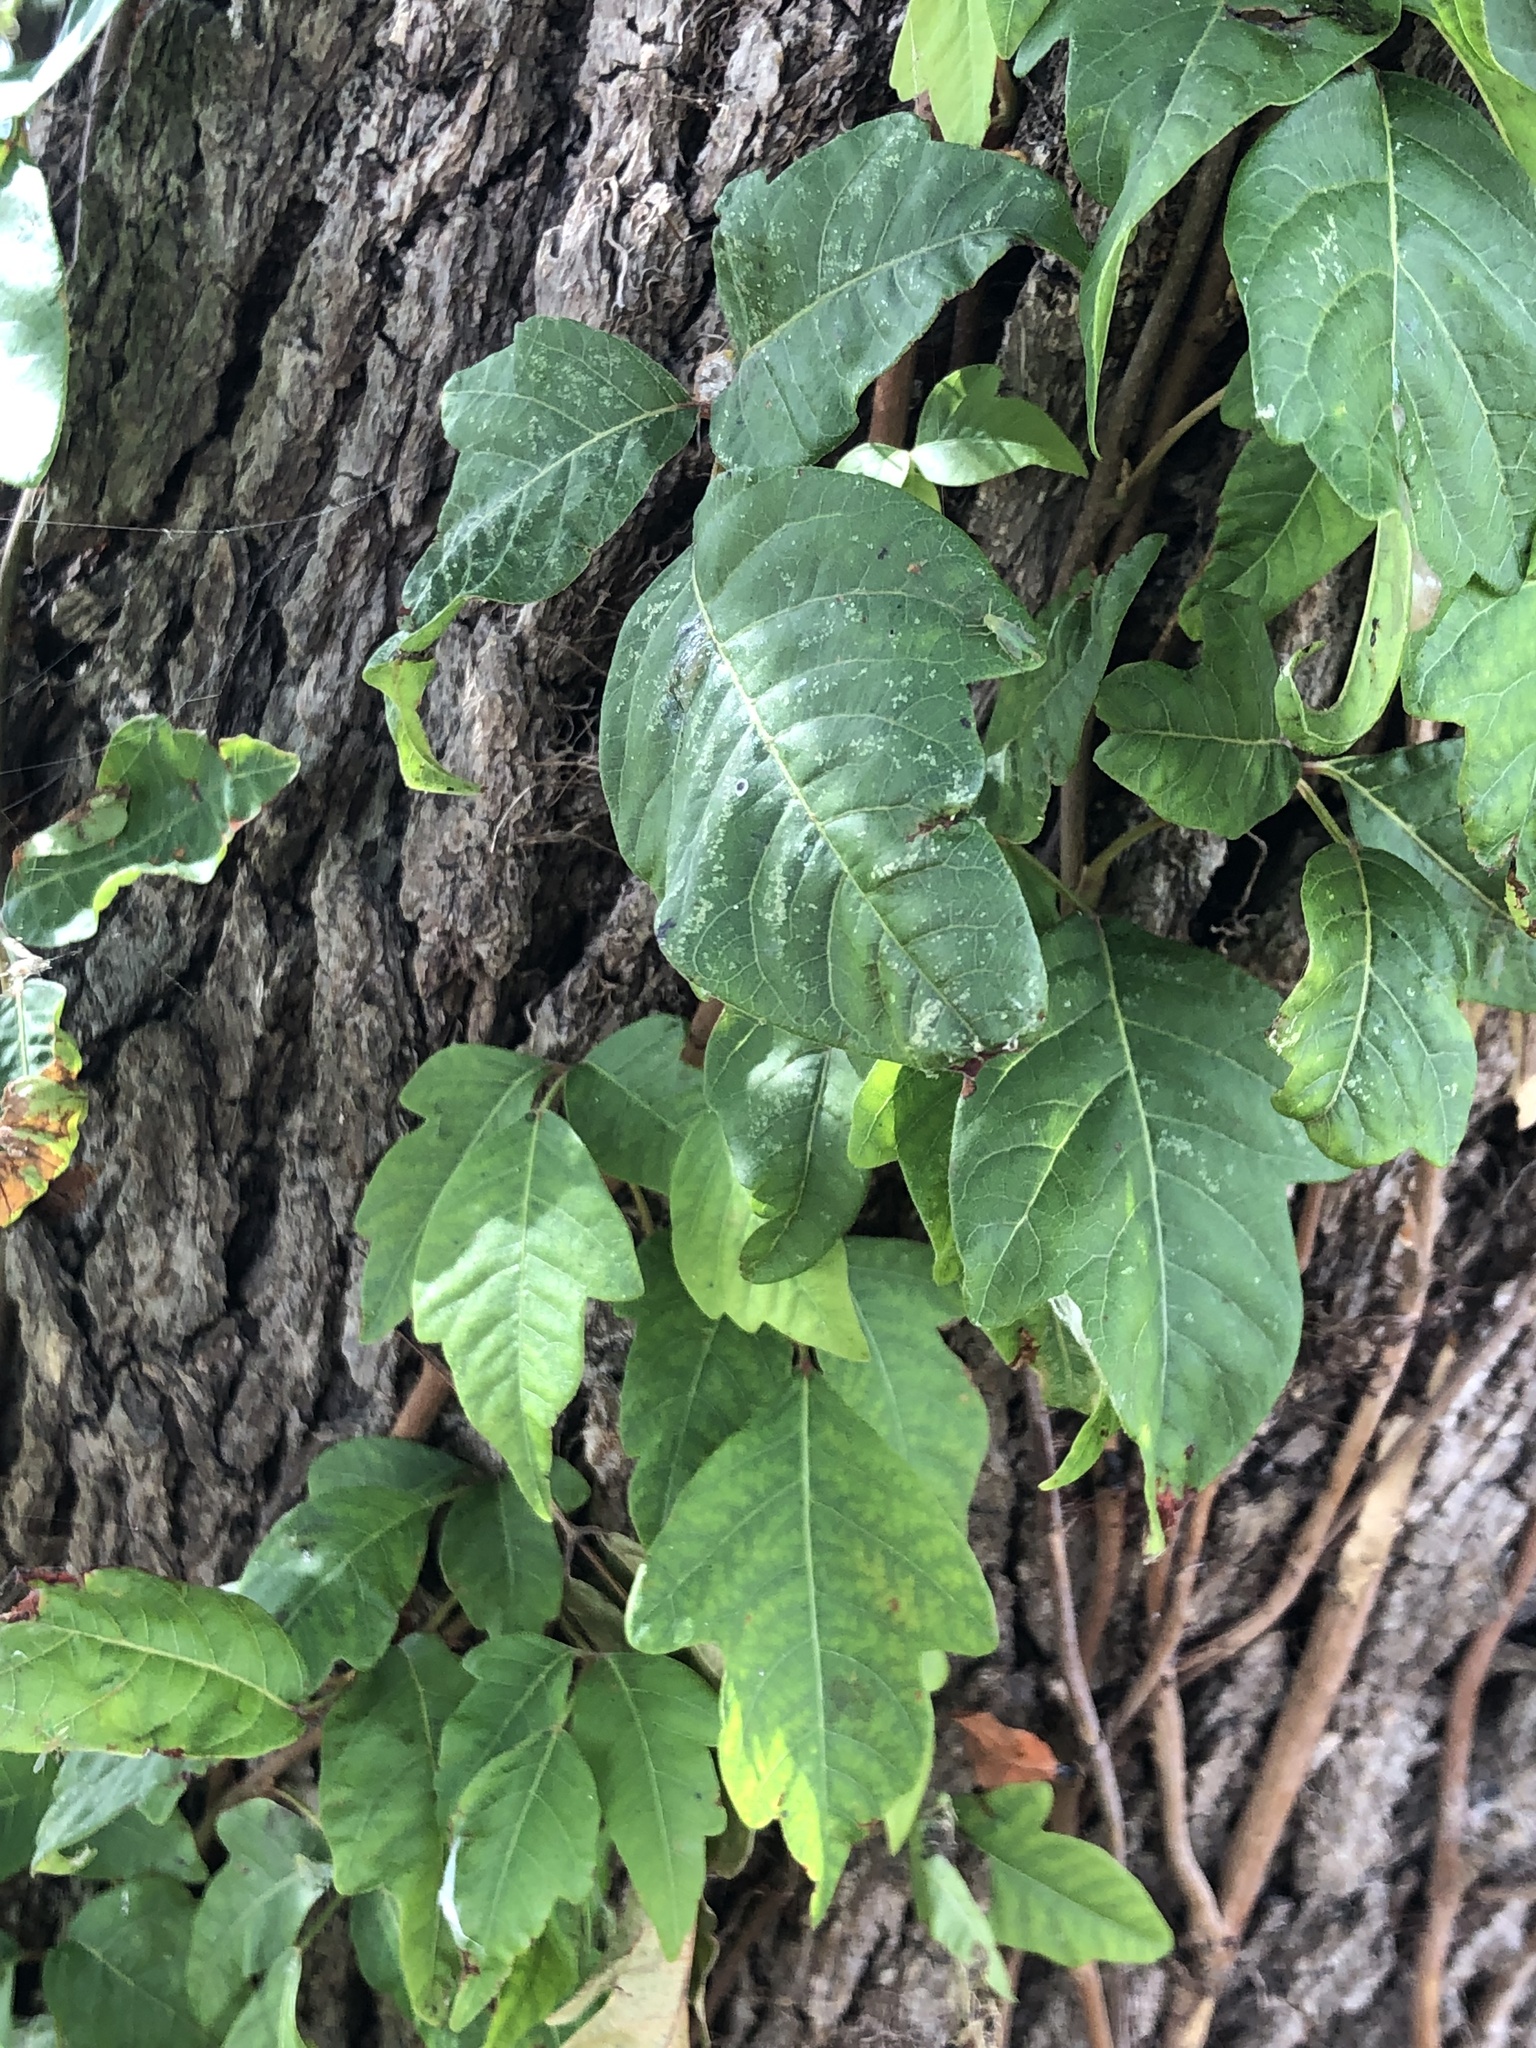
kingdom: Plantae
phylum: Tracheophyta
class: Magnoliopsida
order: Sapindales
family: Anacardiaceae
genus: Toxicodendron
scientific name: Toxicodendron radicans
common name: Poison ivy
